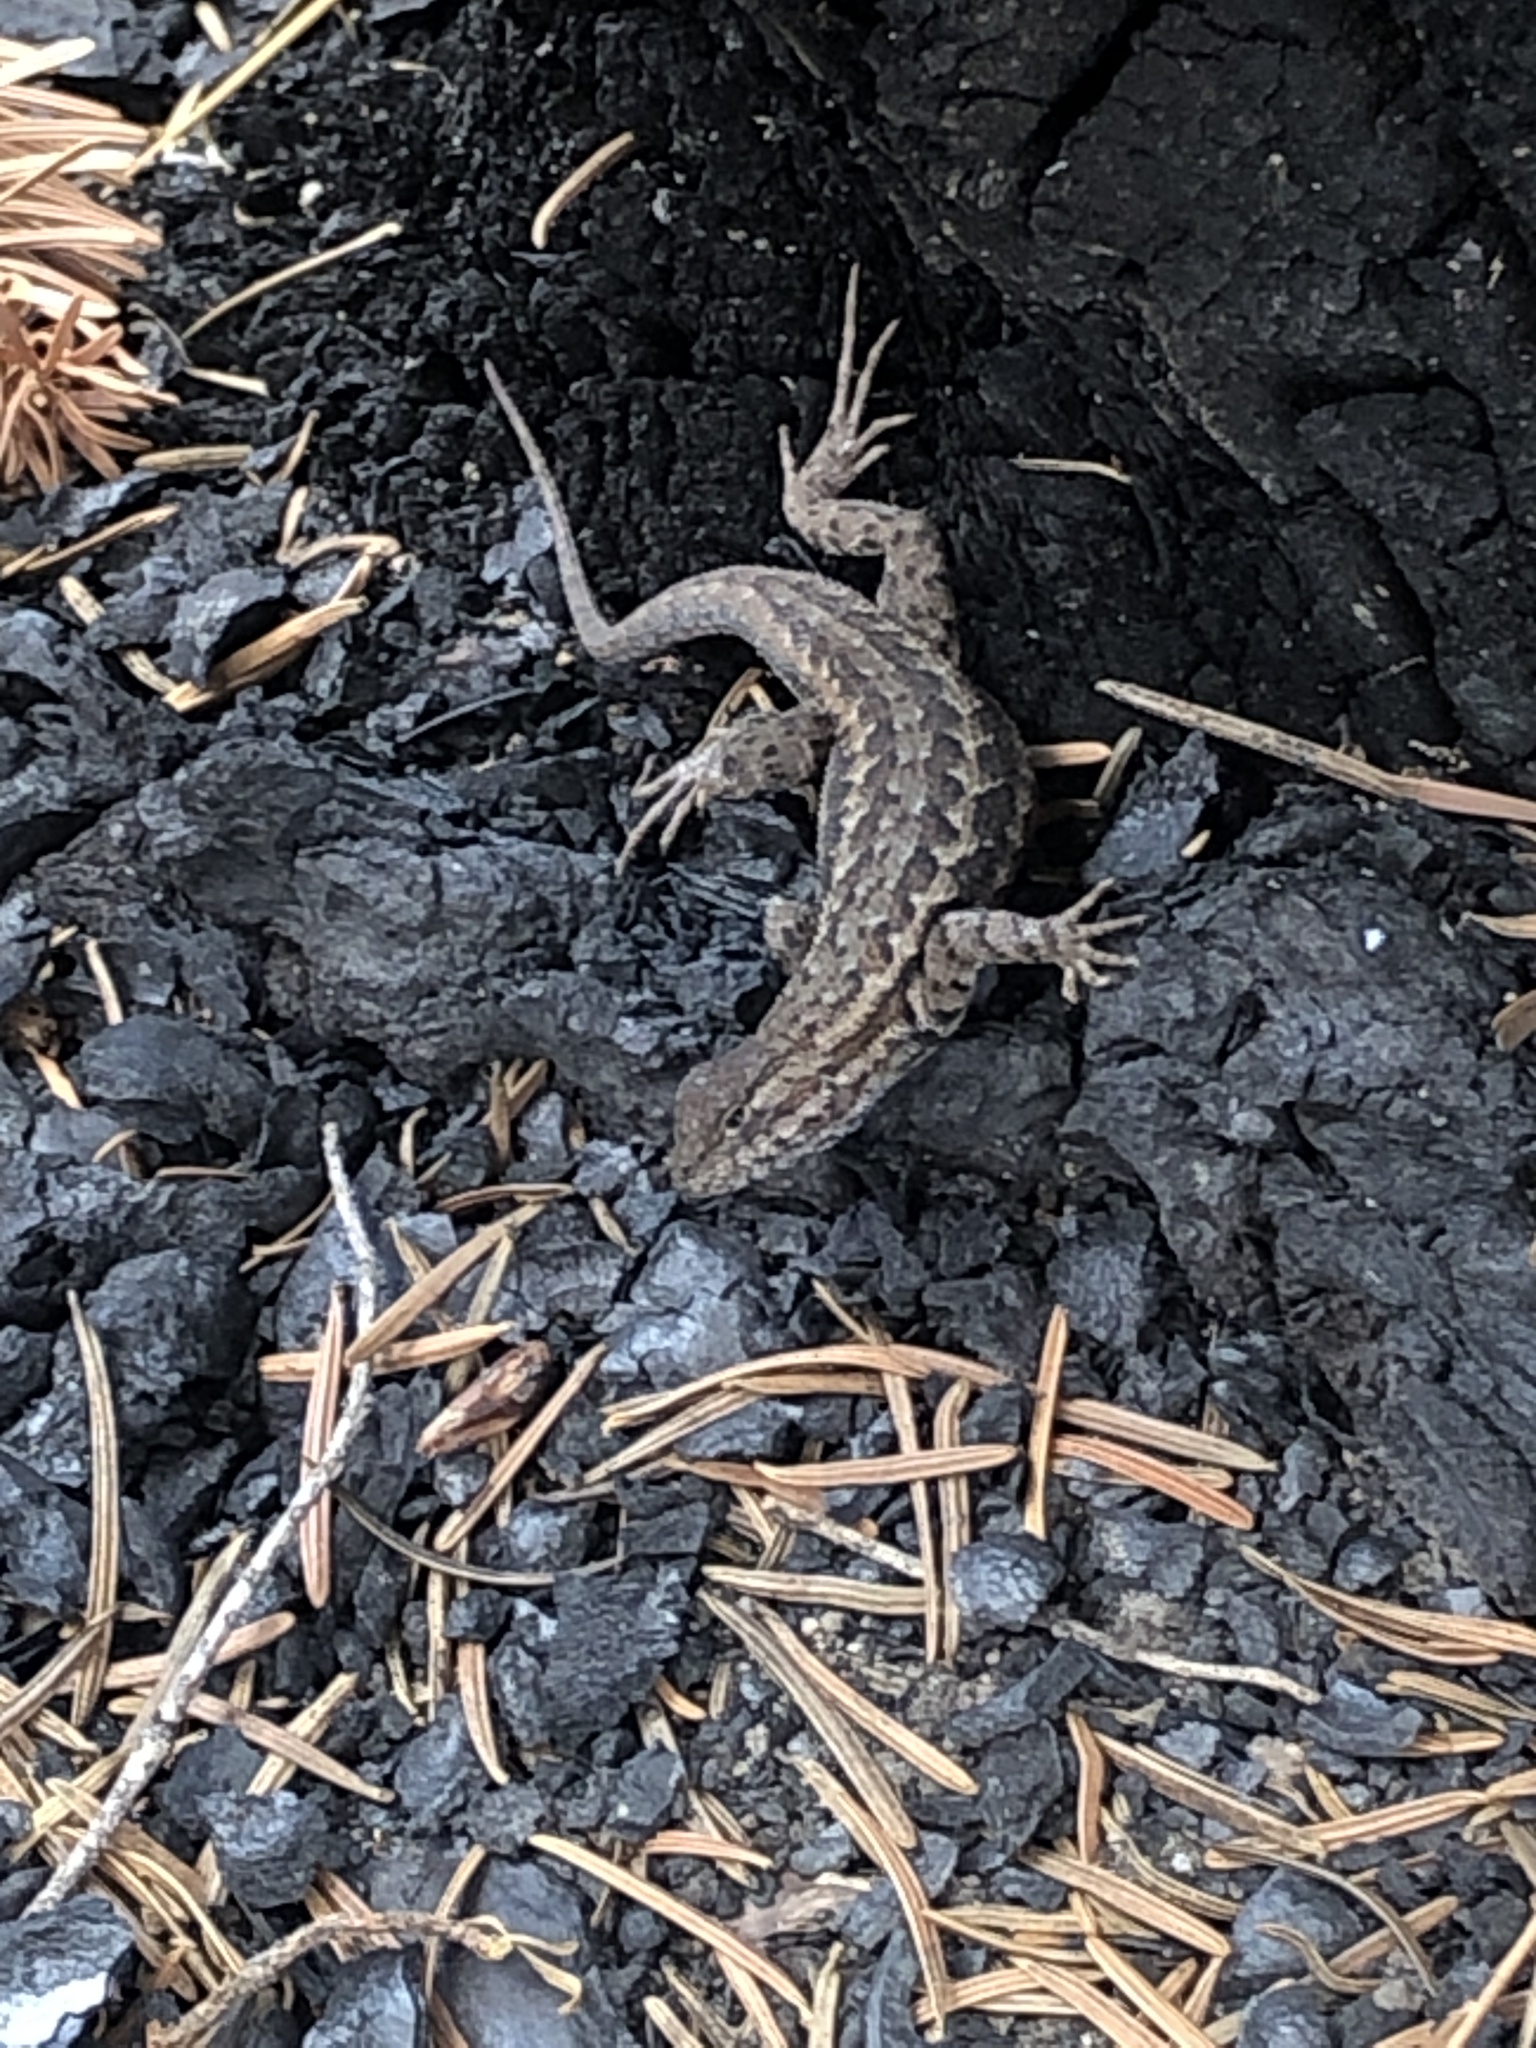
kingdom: Animalia
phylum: Chordata
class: Squamata
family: Phrynosomatidae
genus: Sceloporus
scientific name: Sceloporus graciosus
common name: Sagebrush lizard
